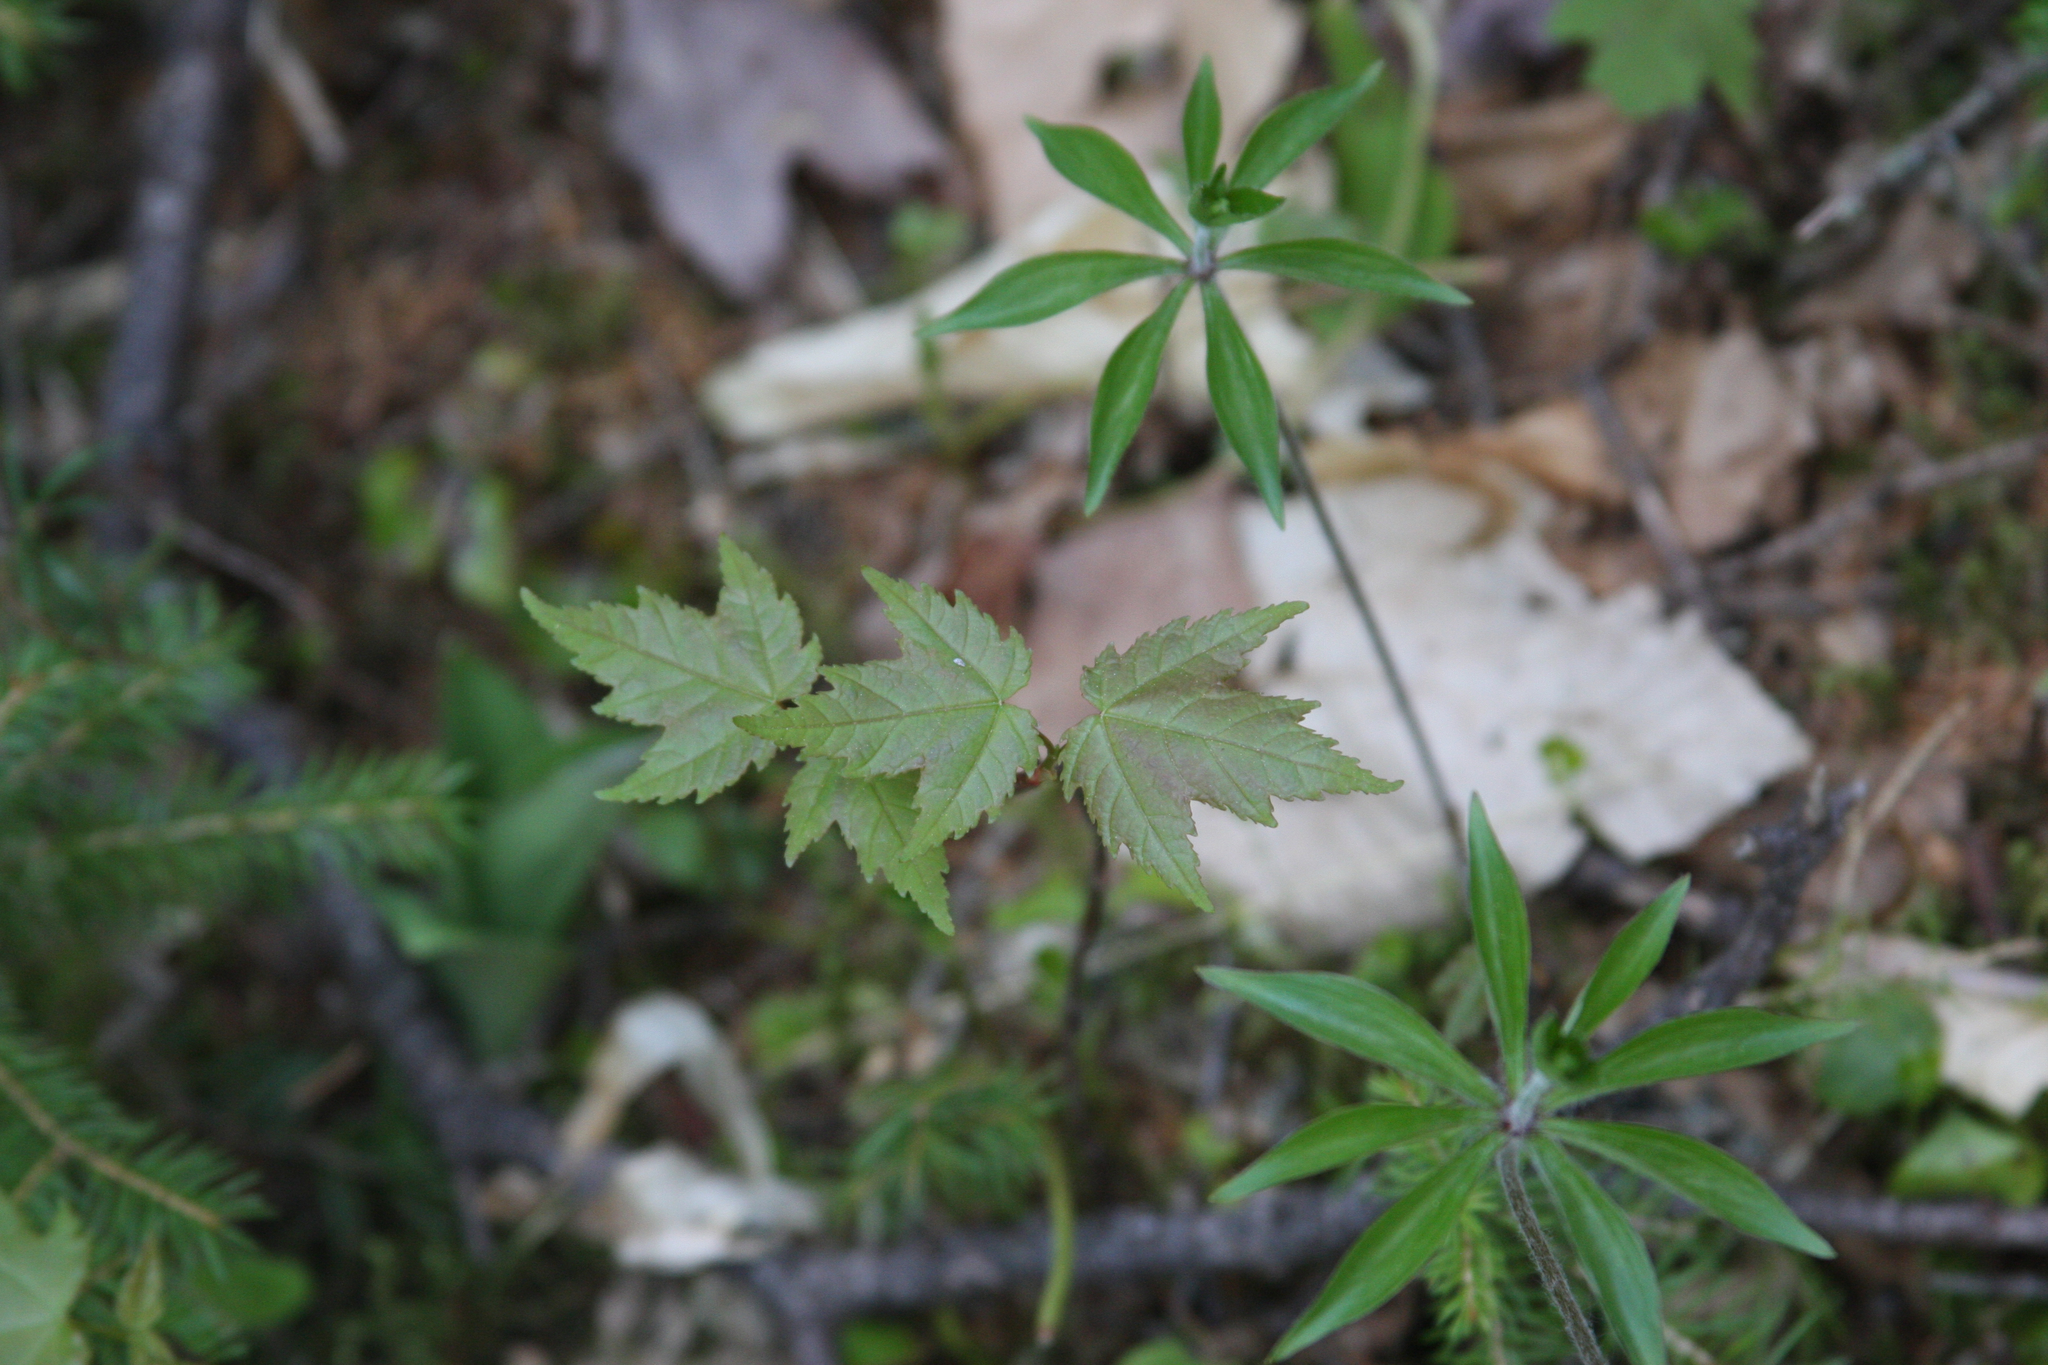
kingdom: Plantae
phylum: Tracheophyta
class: Magnoliopsida
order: Sapindales
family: Sapindaceae
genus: Acer
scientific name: Acer rubrum
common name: Red maple
